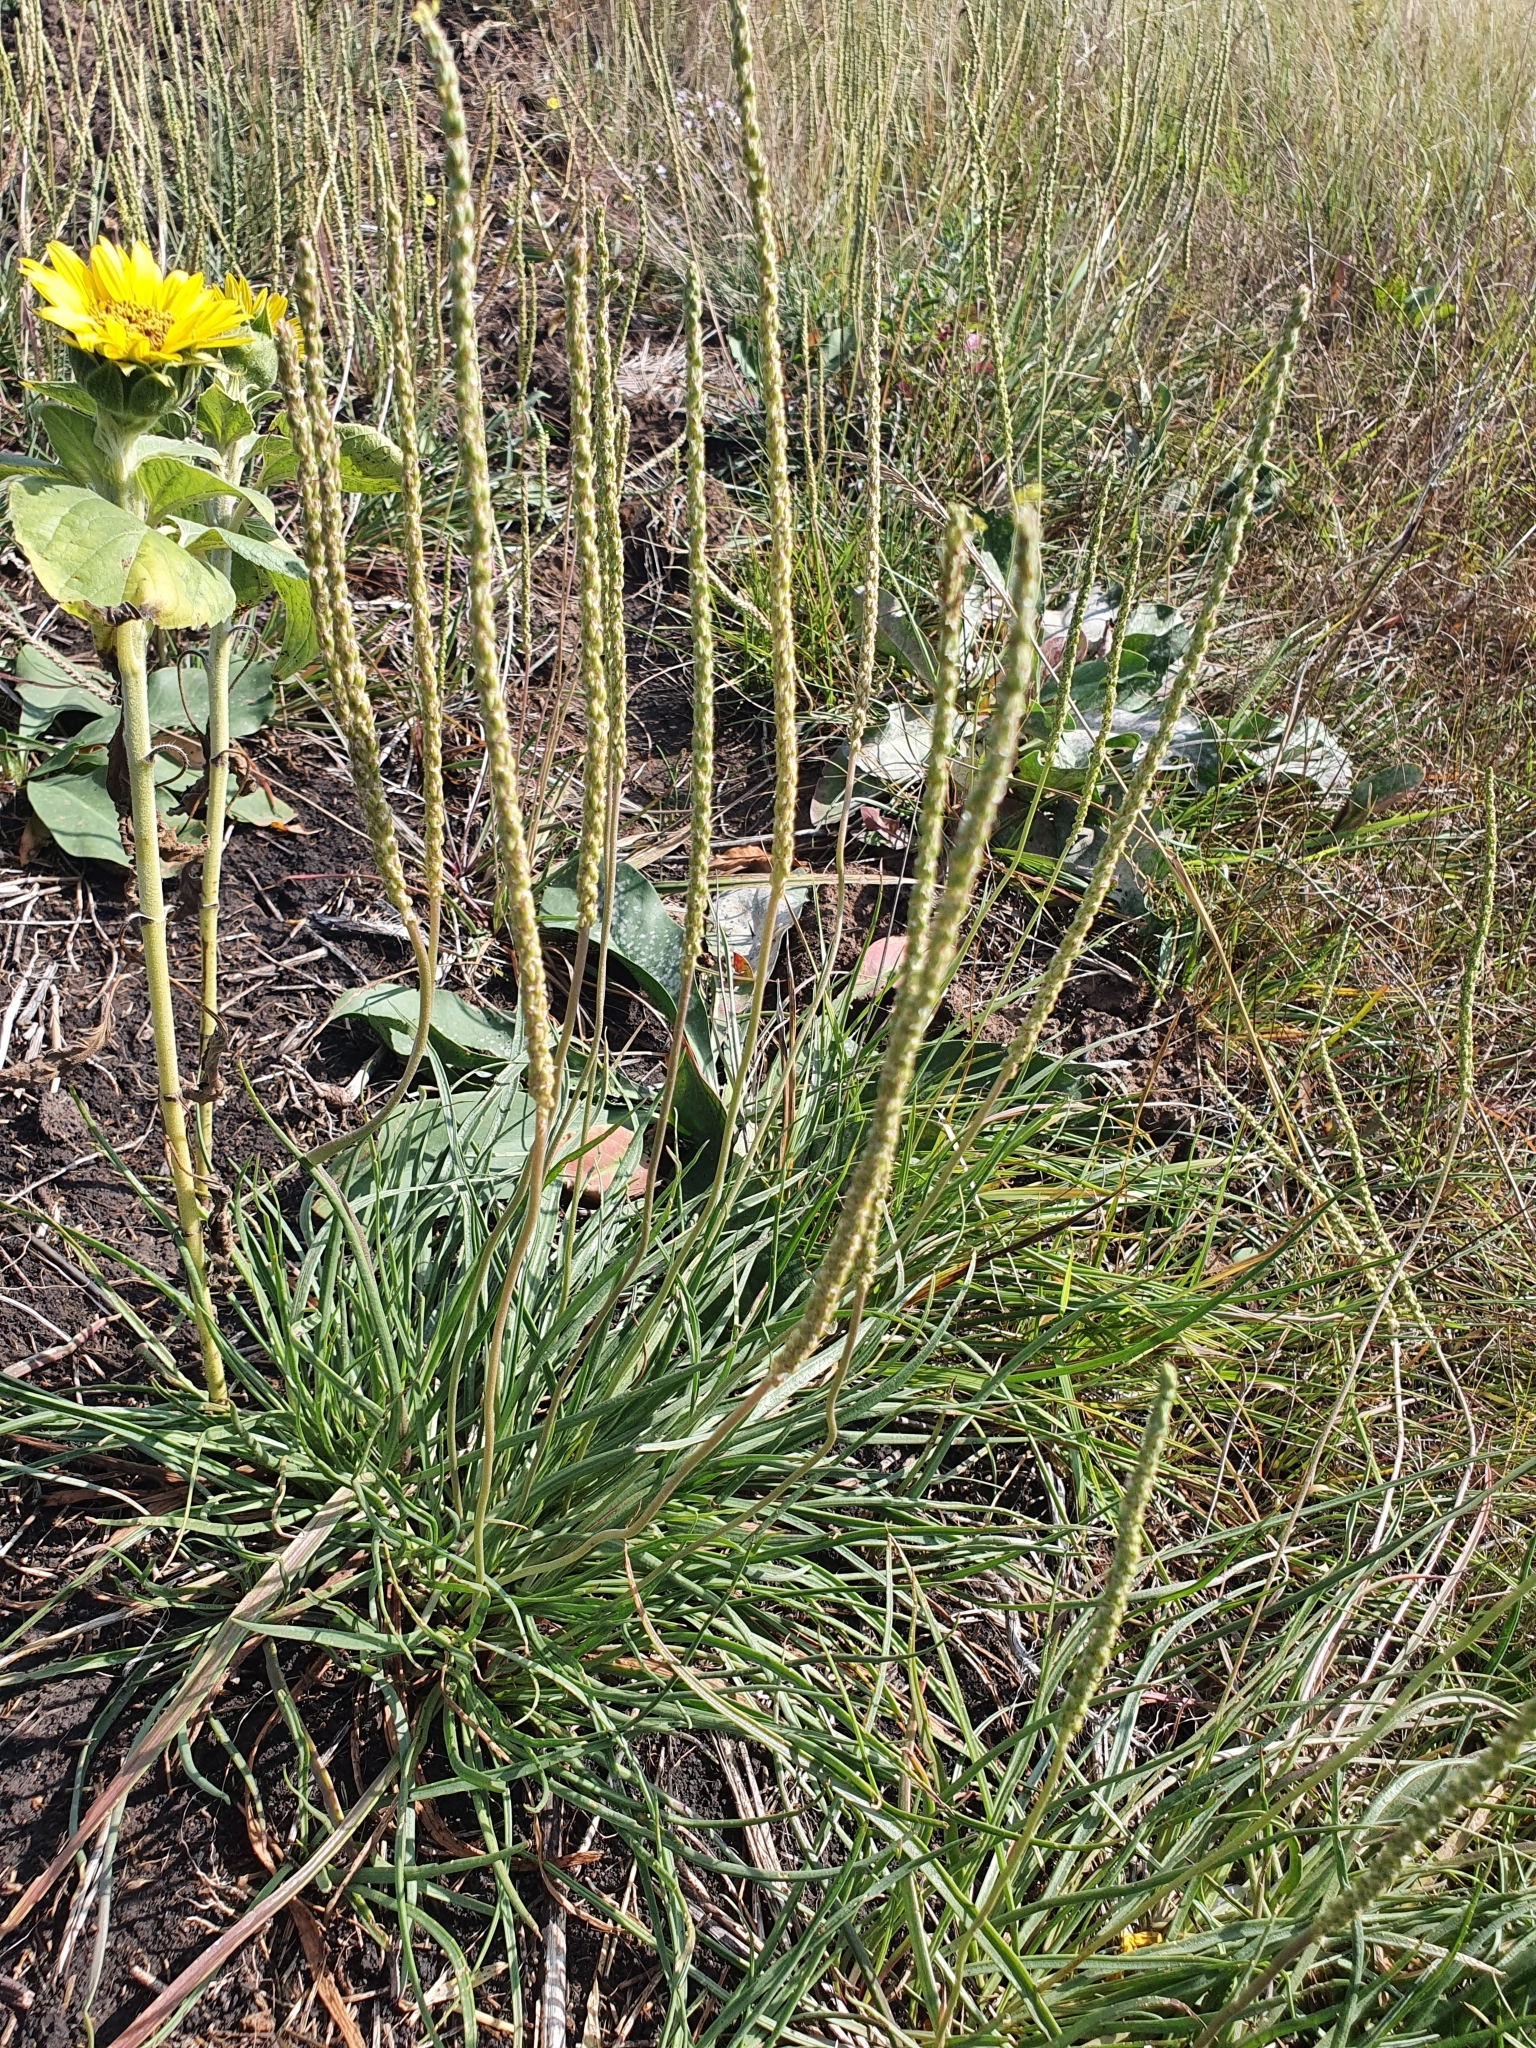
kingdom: Plantae
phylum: Tracheophyta
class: Magnoliopsida
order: Lamiales
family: Plantaginaceae
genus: Plantago
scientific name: Plantago salsa
